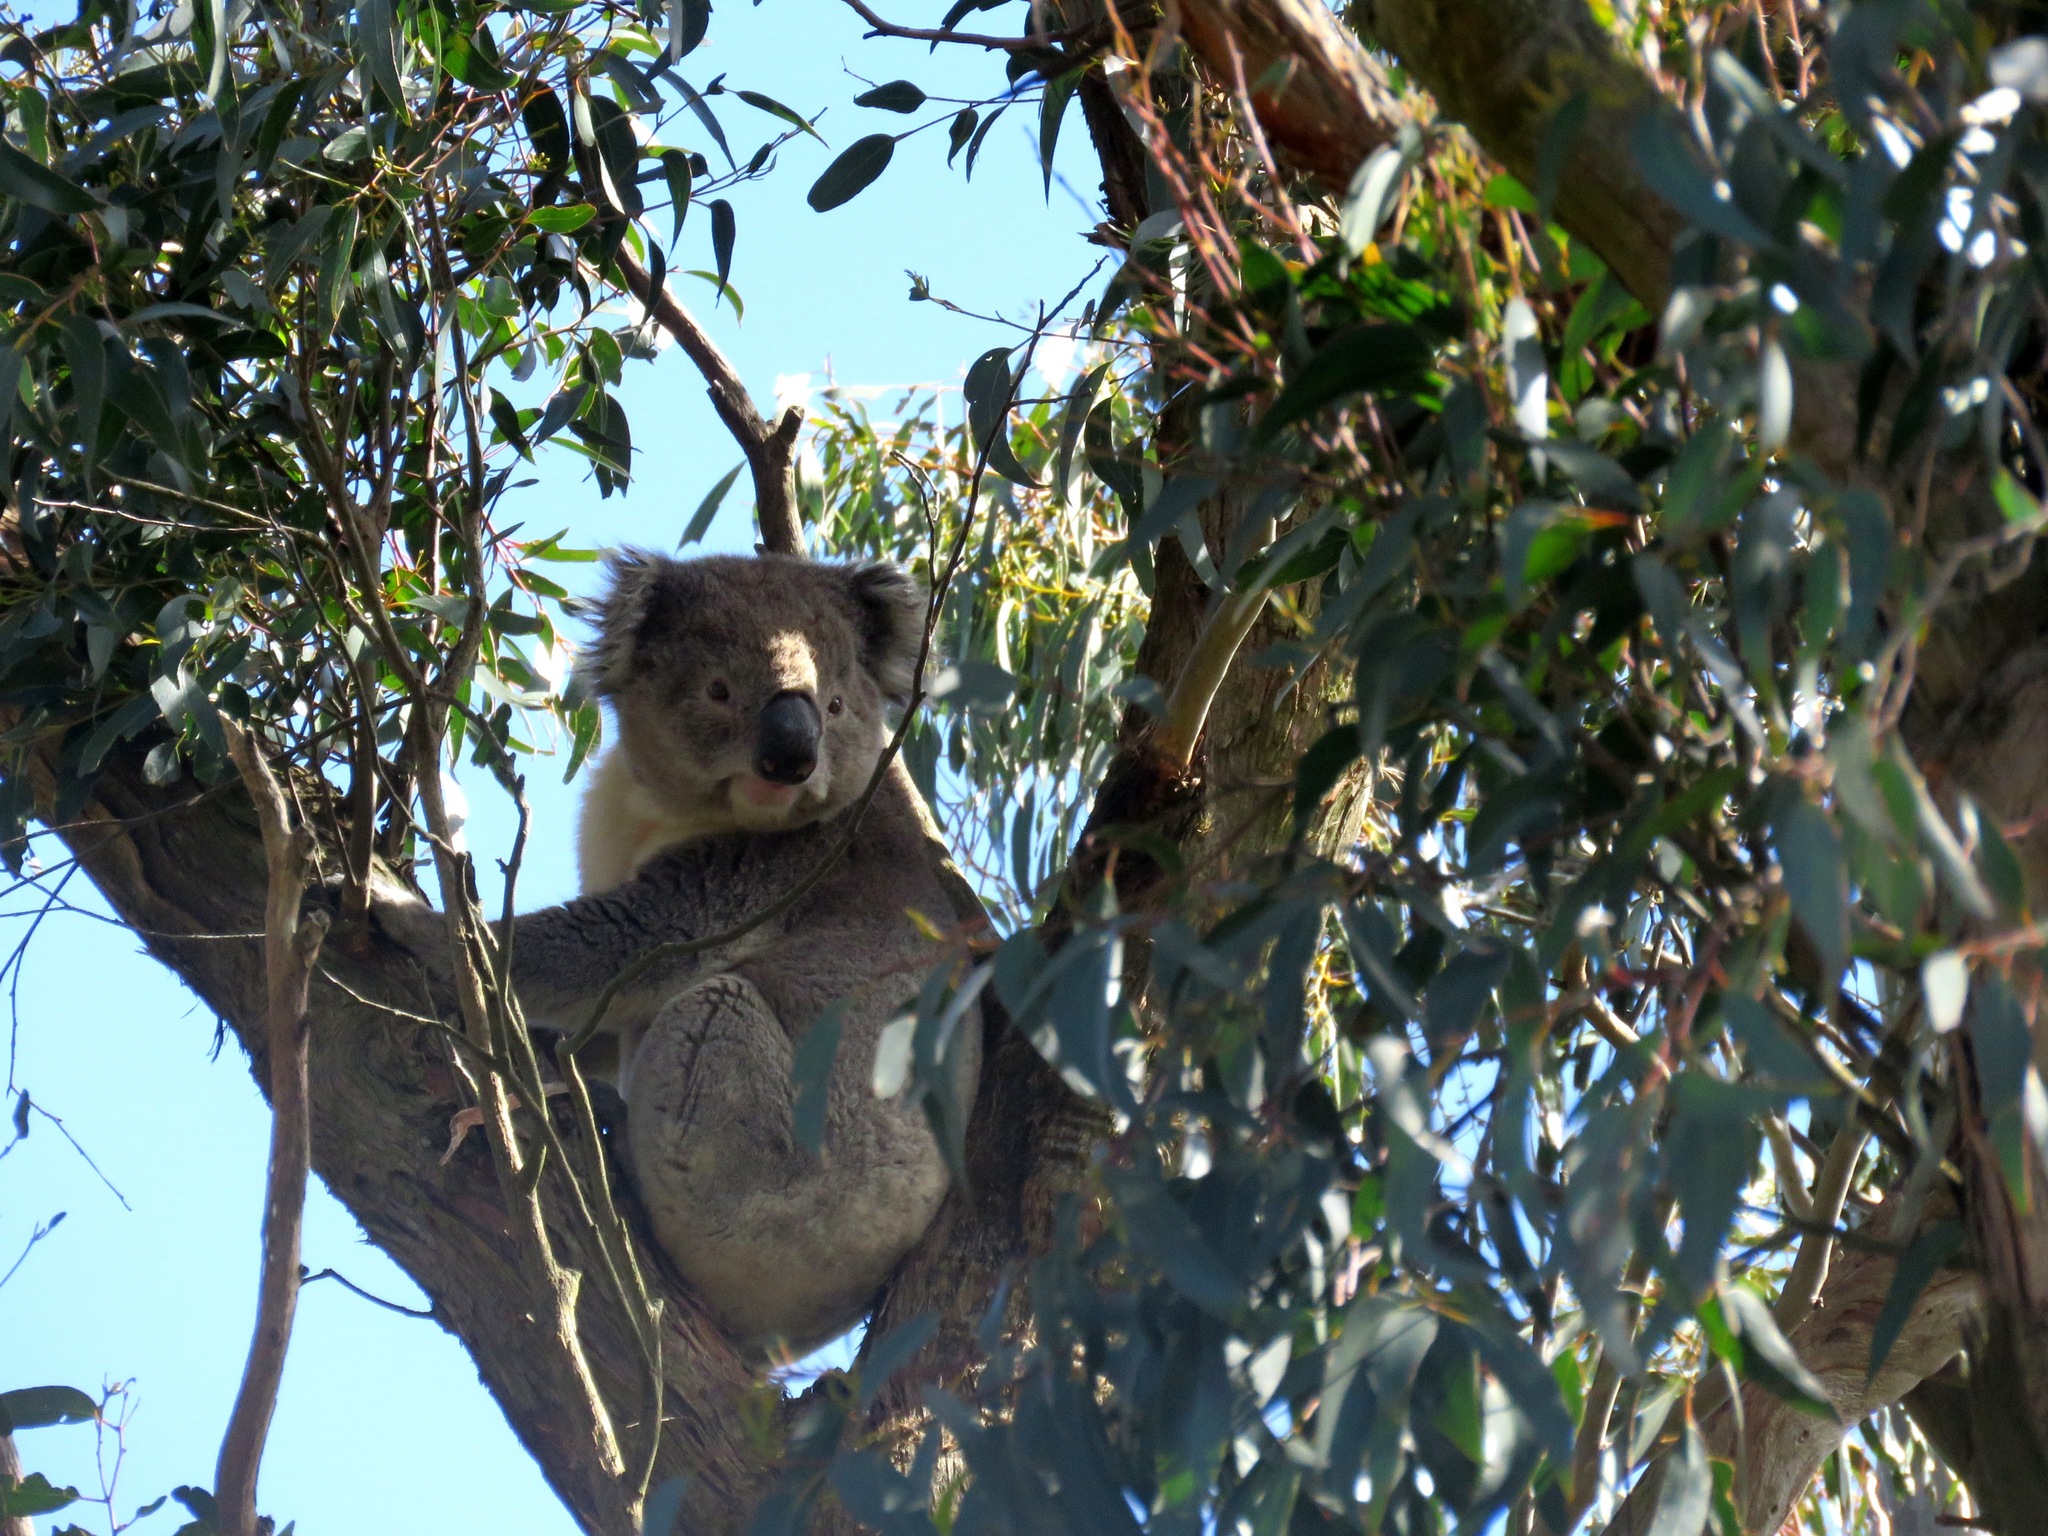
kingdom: Animalia
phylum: Chordata
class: Mammalia
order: Diprotodontia
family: Phascolarctidae
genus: Phascolarctos
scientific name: Phascolarctos cinereus
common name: Koala
